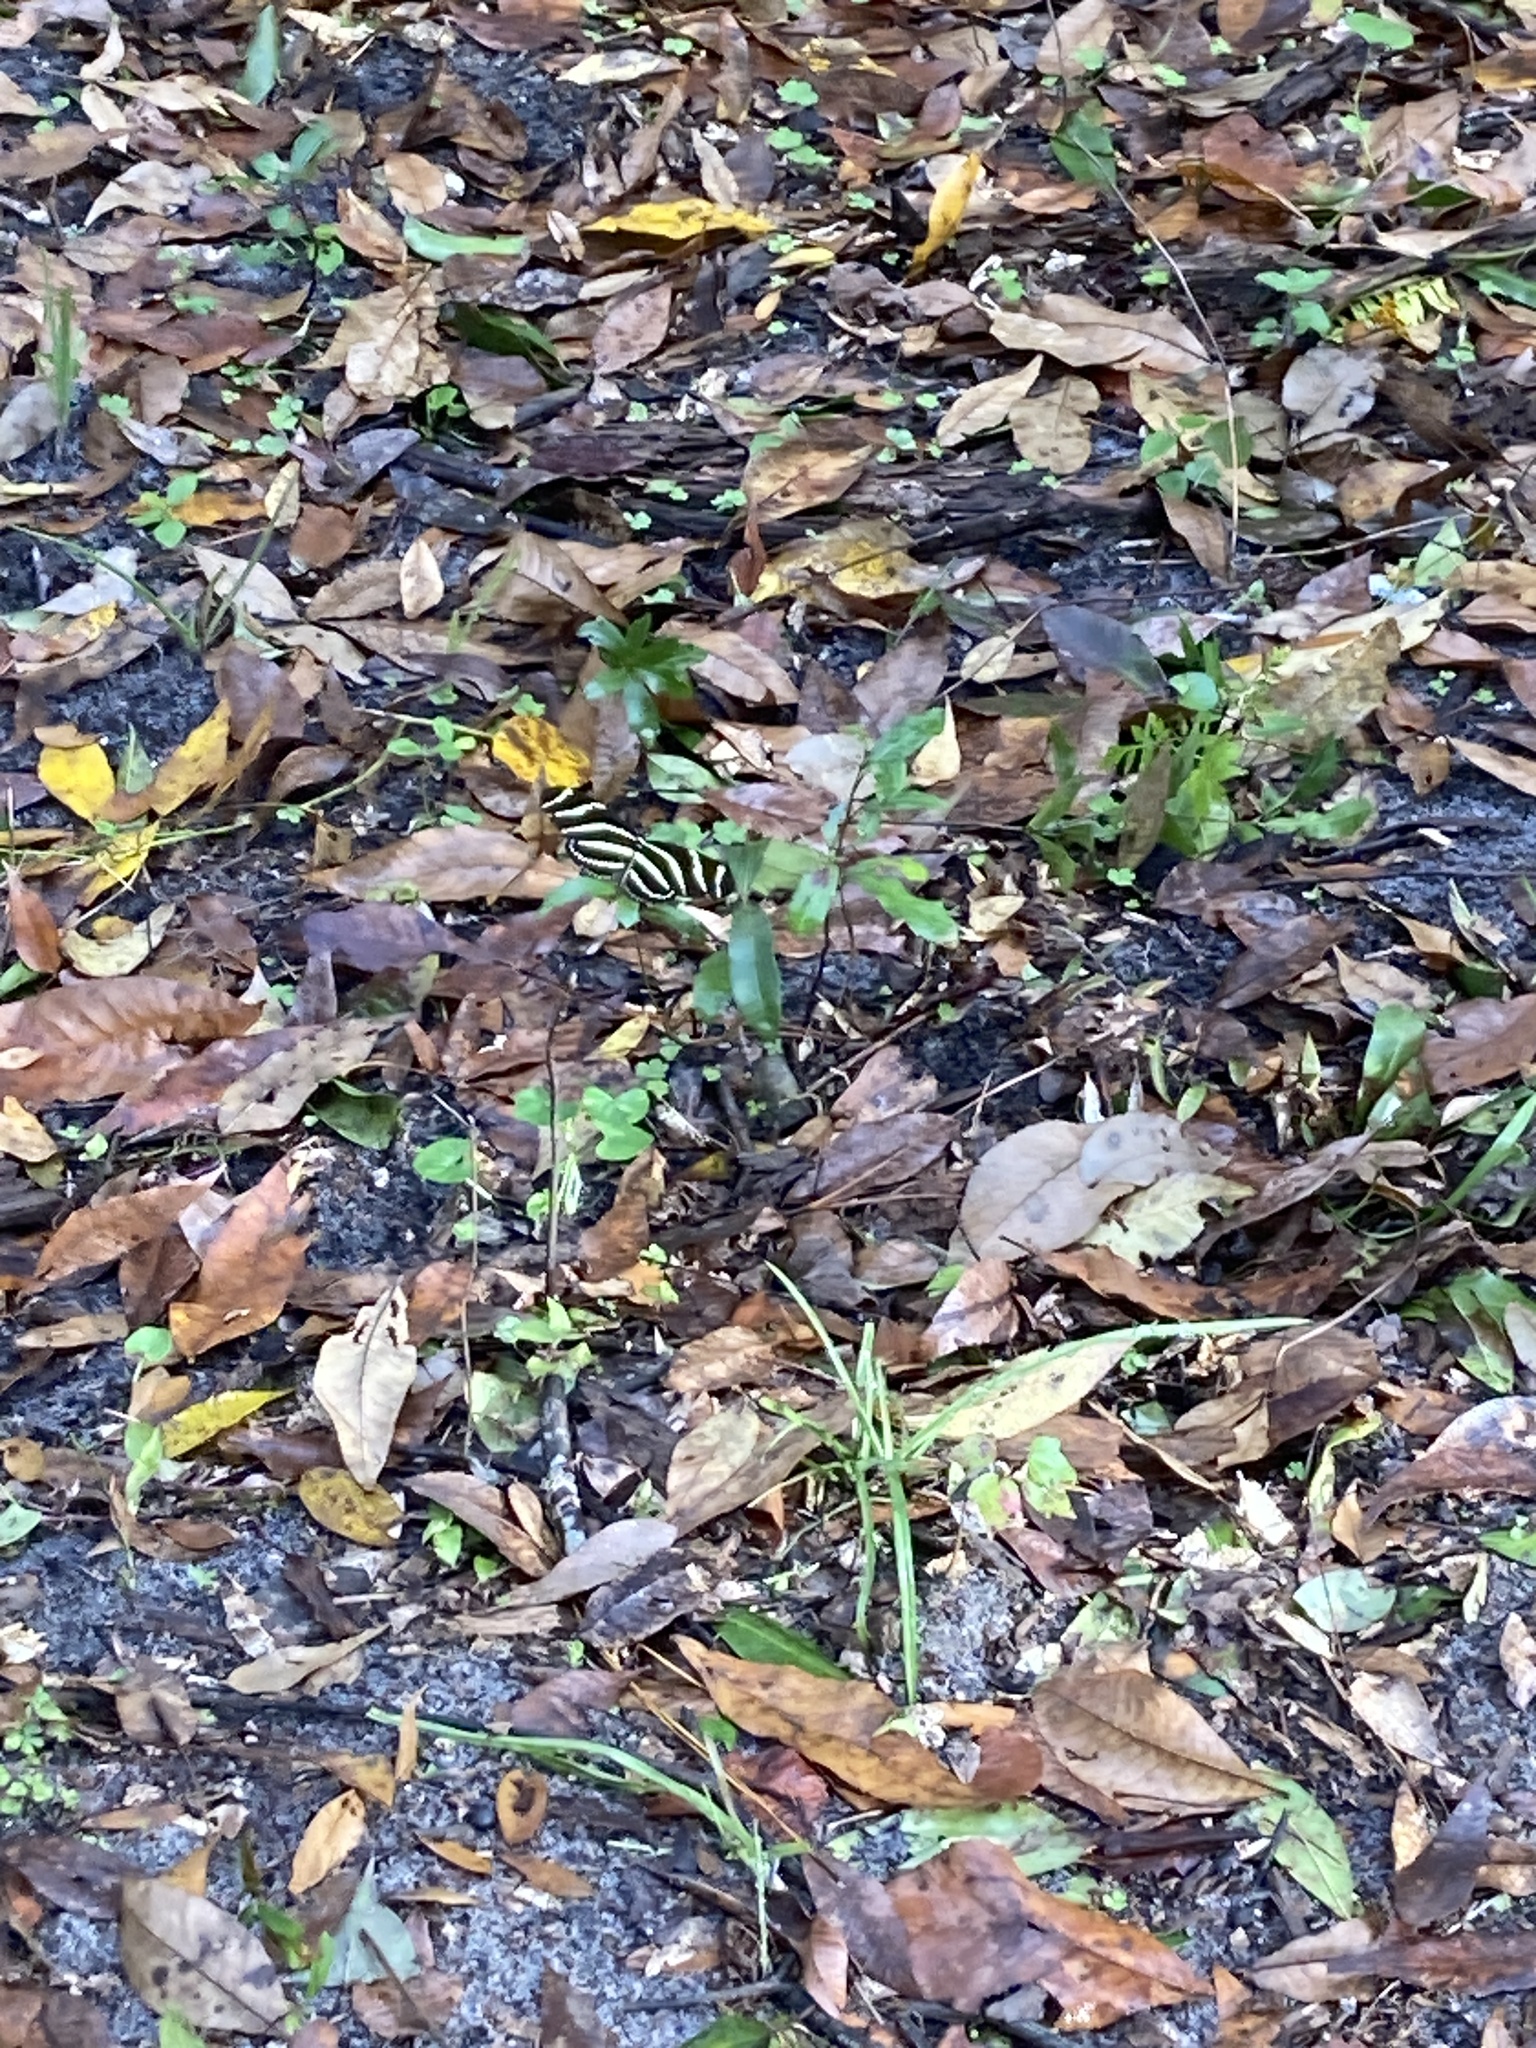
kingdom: Animalia
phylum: Arthropoda
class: Insecta
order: Lepidoptera
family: Nymphalidae
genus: Heliconius
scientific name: Heliconius charithonia
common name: Zebra long wing
